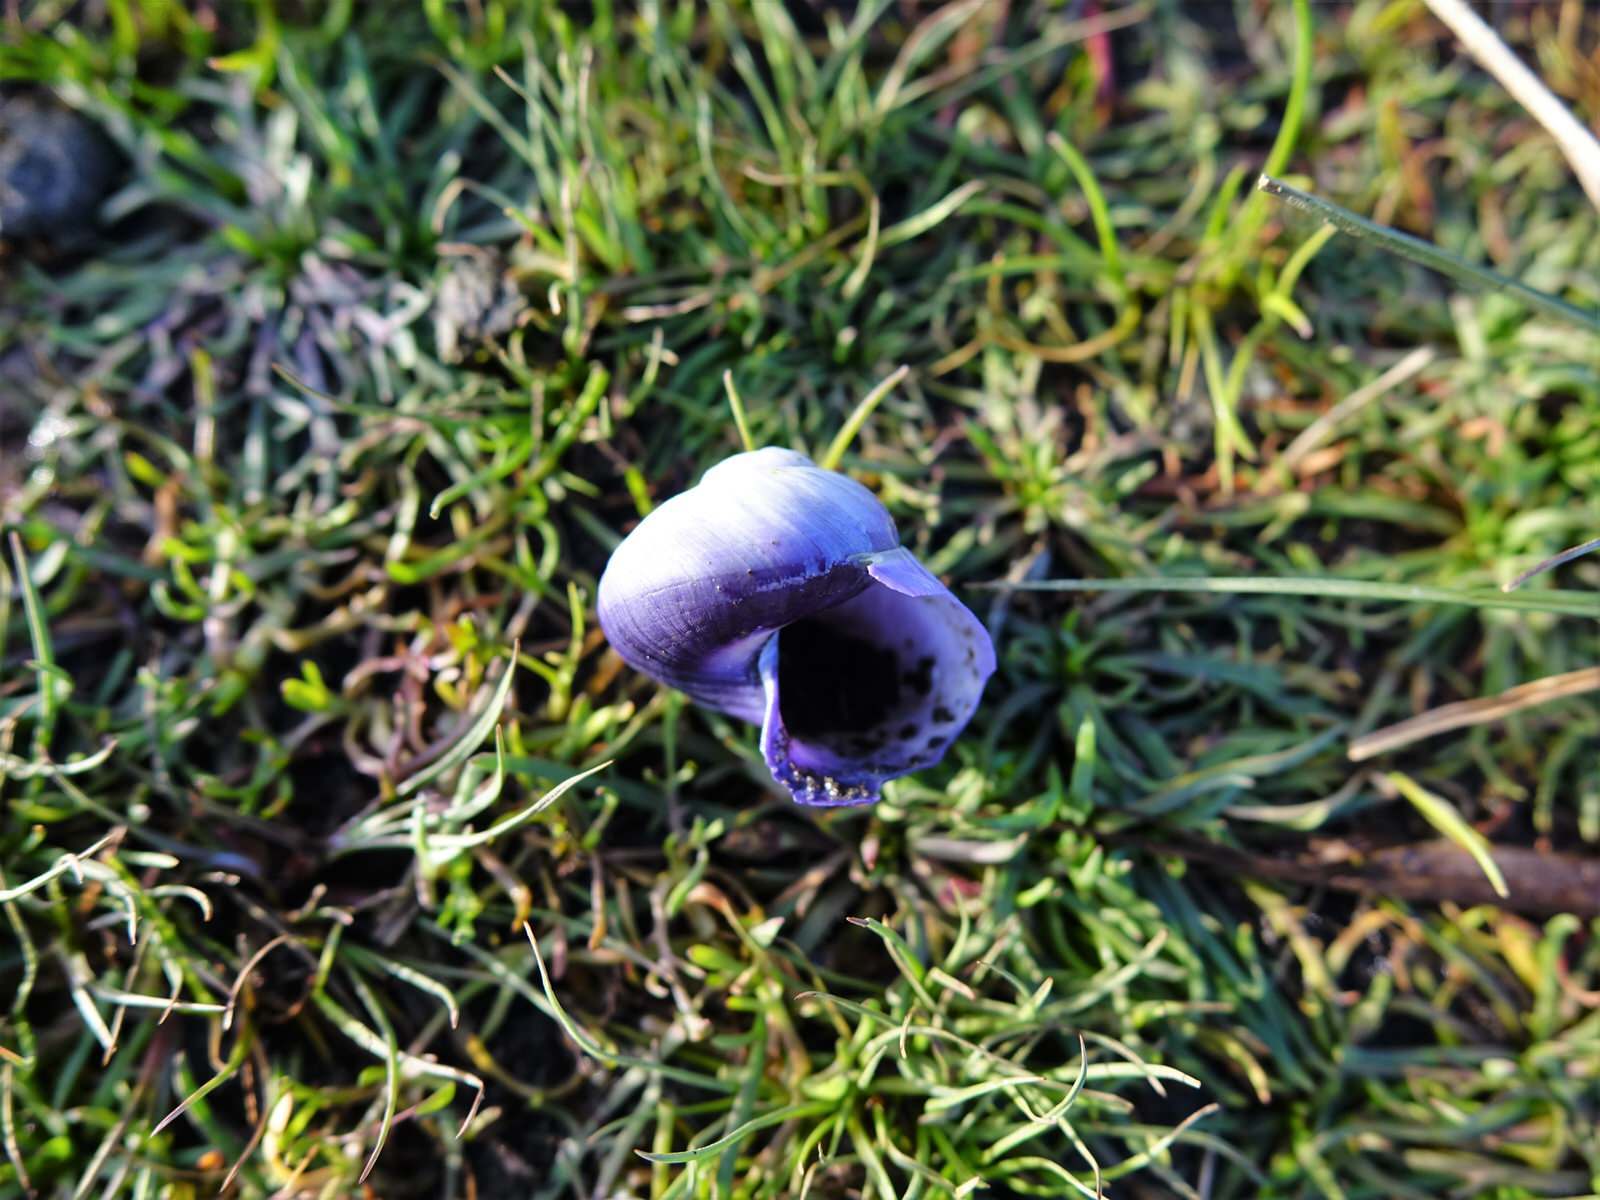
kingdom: Animalia
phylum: Mollusca
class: Gastropoda
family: Epitoniidae
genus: Janthina
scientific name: Janthina janthina
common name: Common janthina
